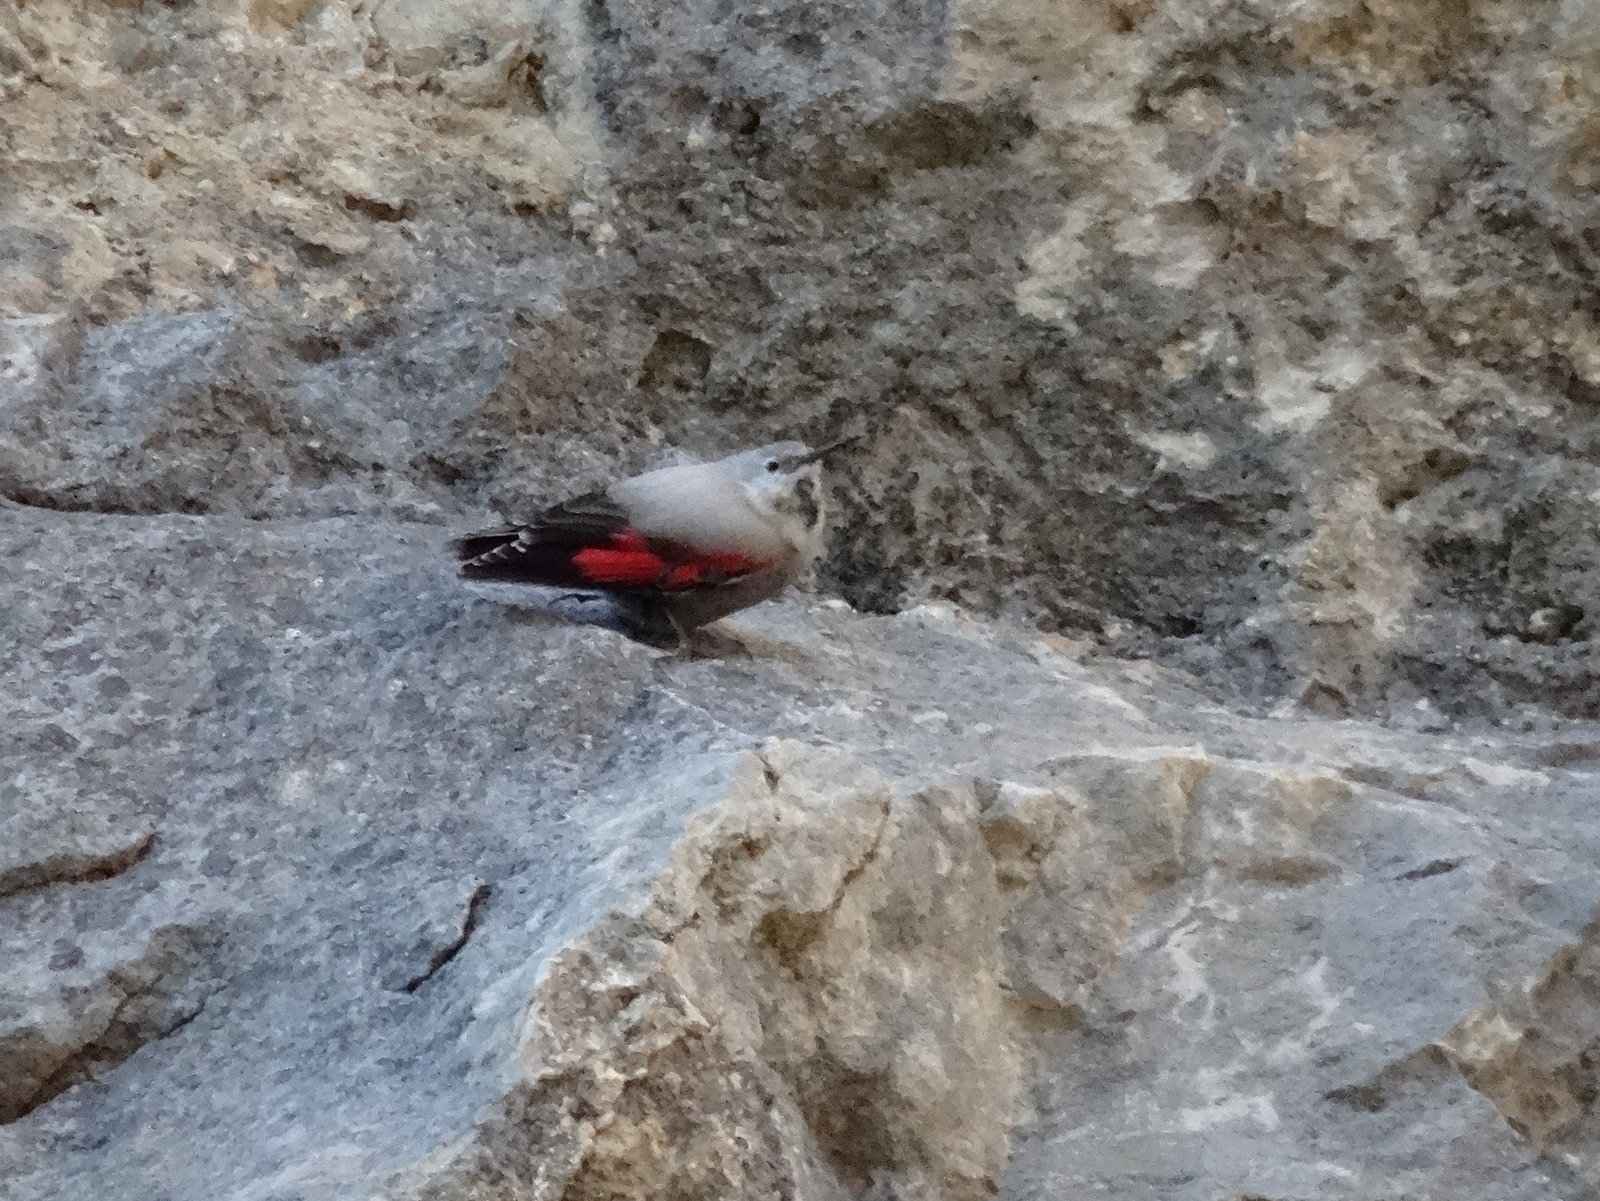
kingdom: Animalia
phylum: Chordata
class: Aves
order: Passeriformes
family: Tichodromidae
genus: Tichodroma
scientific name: Tichodroma muraria
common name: Wallcreeper
